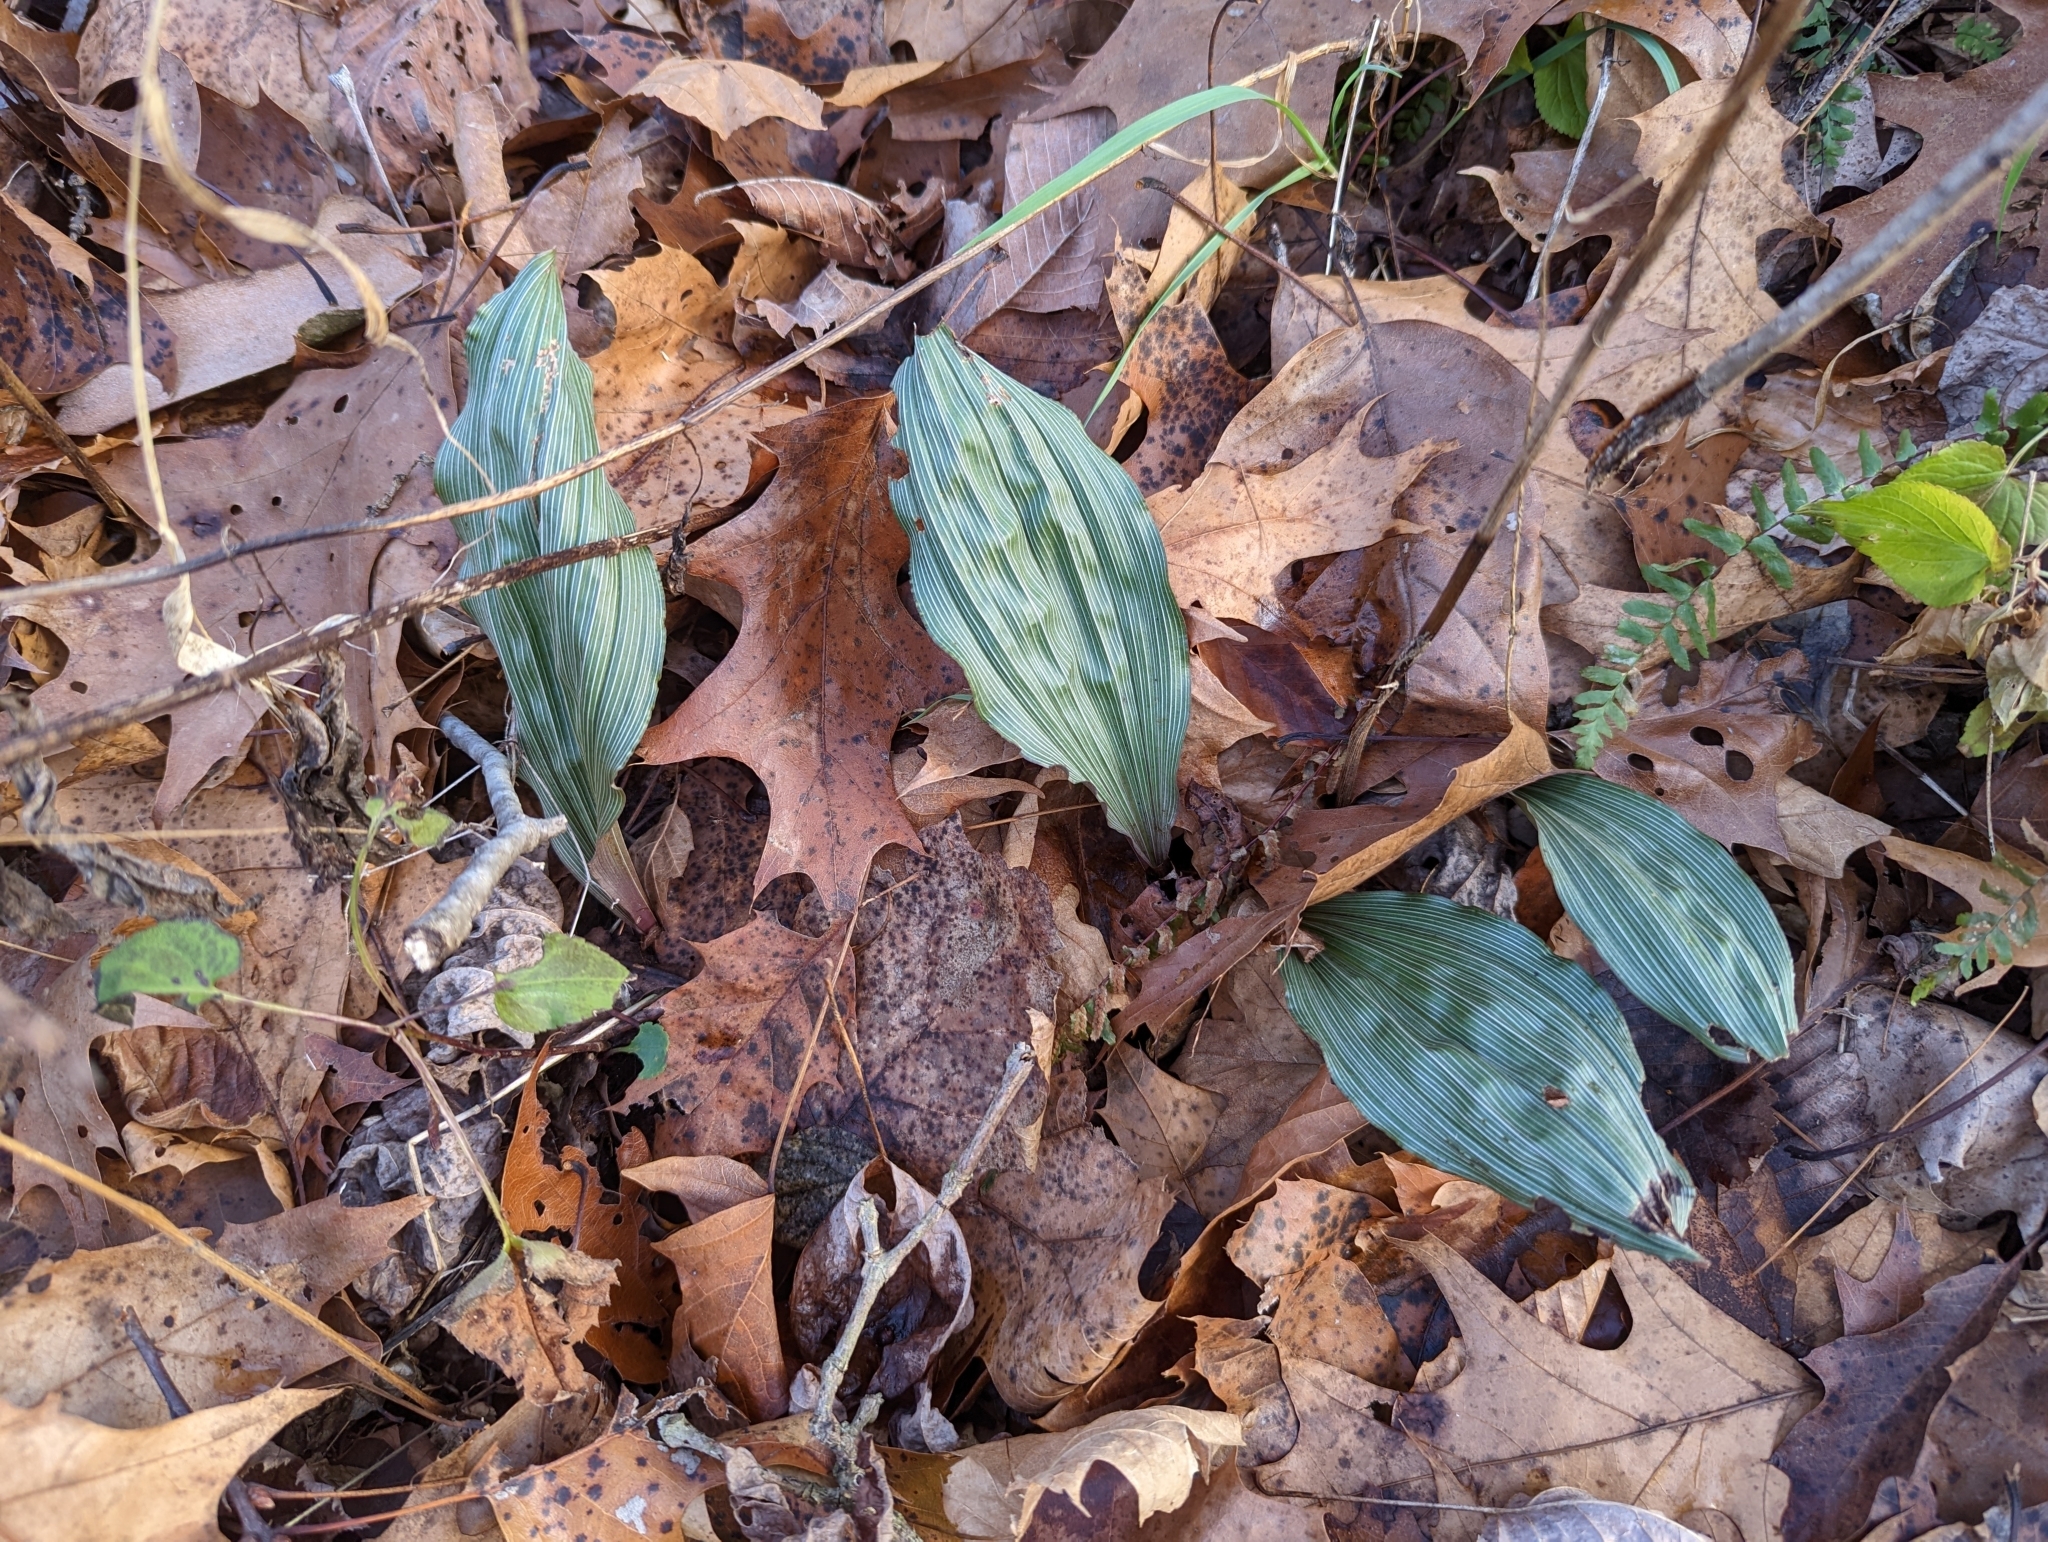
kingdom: Plantae
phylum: Tracheophyta
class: Liliopsida
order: Asparagales
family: Orchidaceae
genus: Aplectrum
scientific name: Aplectrum hyemale
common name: Adam-and-eve
